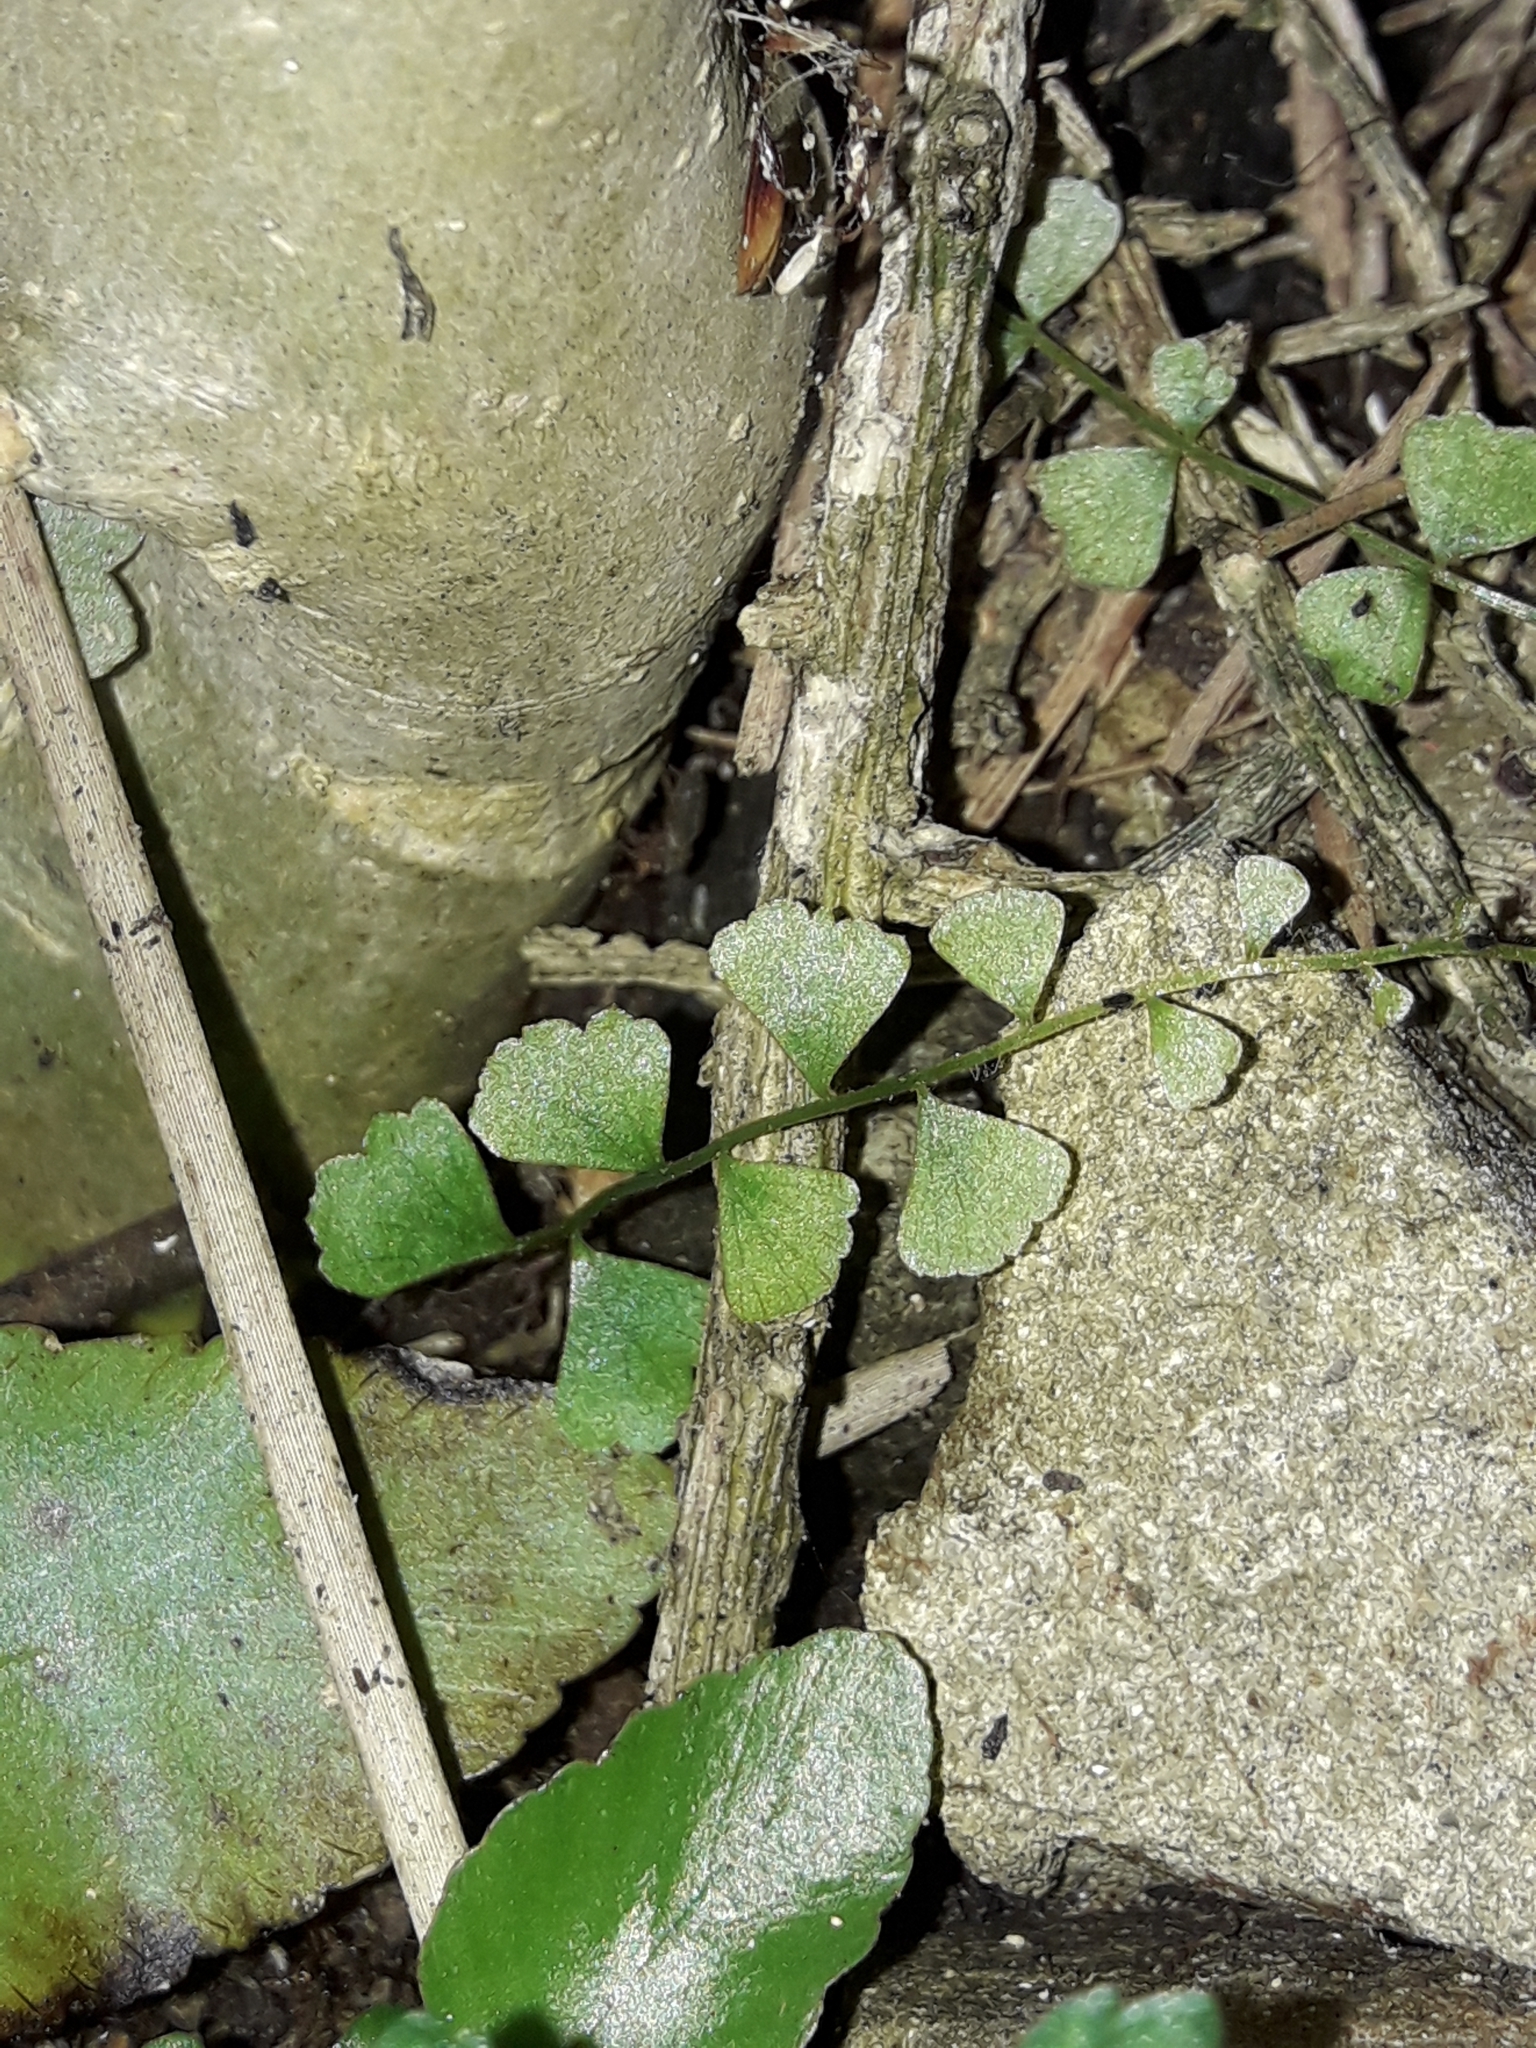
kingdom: Plantae
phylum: Tracheophyta
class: Polypodiopsida
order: Polypodiales
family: Aspleniaceae
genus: Asplenium
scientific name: Asplenium flabellifolium
